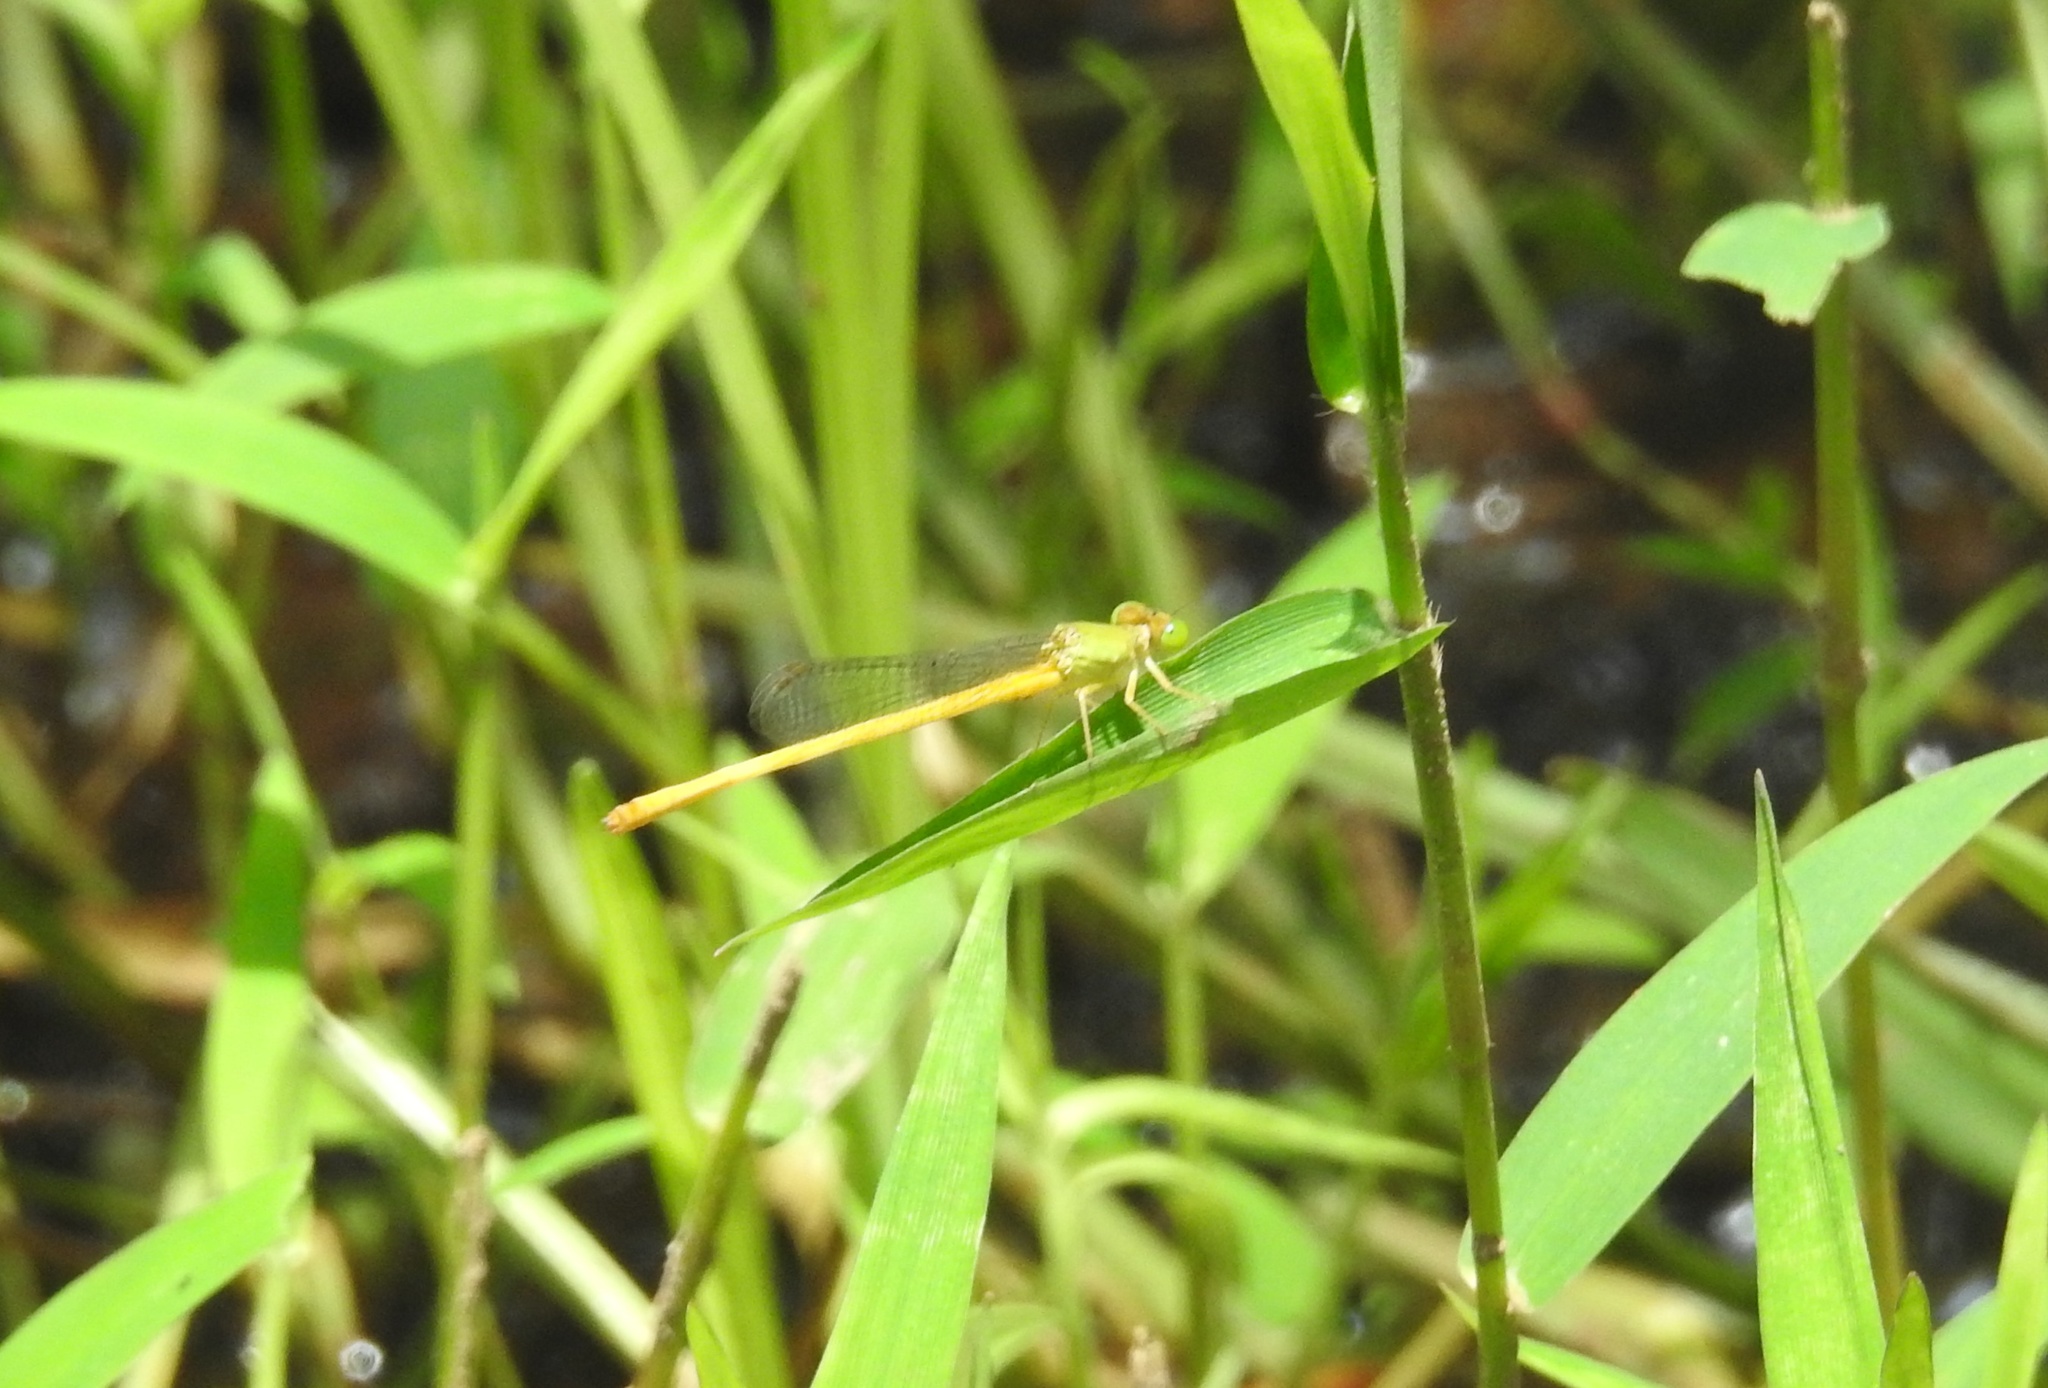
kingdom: Animalia
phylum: Arthropoda
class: Insecta
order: Odonata
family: Coenagrionidae
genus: Ceriagrion
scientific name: Ceriagrion coromandelianum
